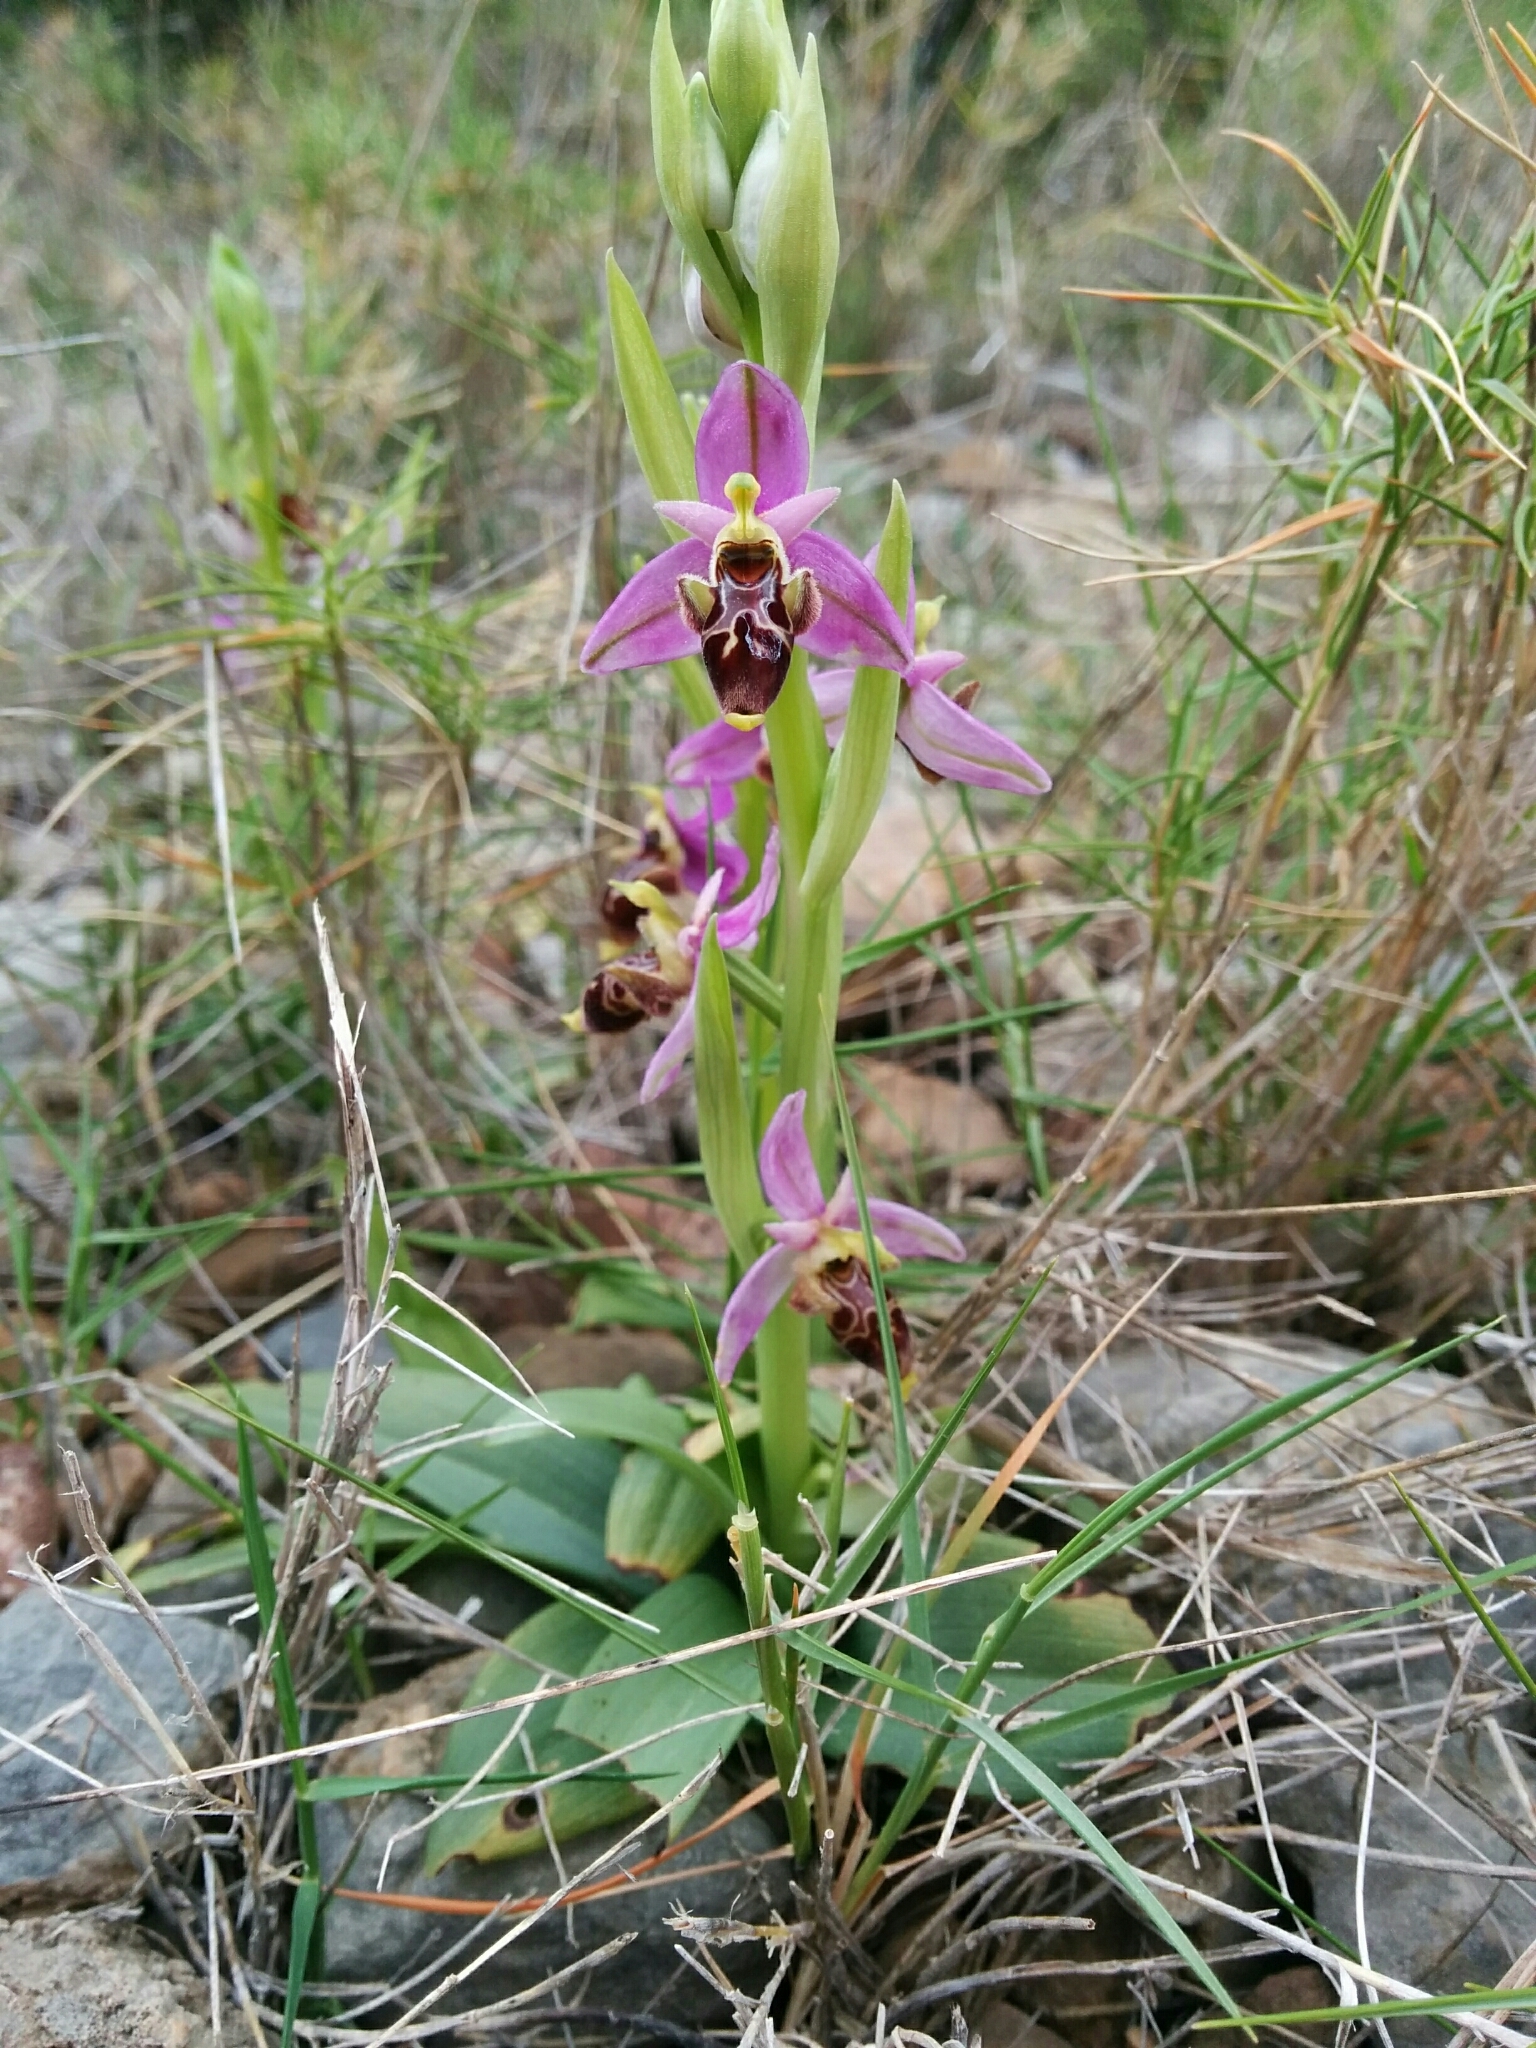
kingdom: Plantae
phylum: Tracheophyta
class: Liliopsida
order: Asparagales
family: Orchidaceae
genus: Ophrys
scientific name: Ophrys scolopax
